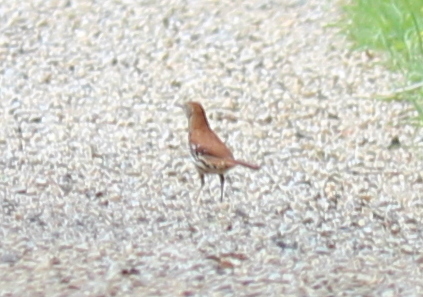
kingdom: Animalia
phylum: Chordata
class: Aves
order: Passeriformes
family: Mimidae
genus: Toxostoma
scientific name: Toxostoma rufum
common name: Brown thrasher
